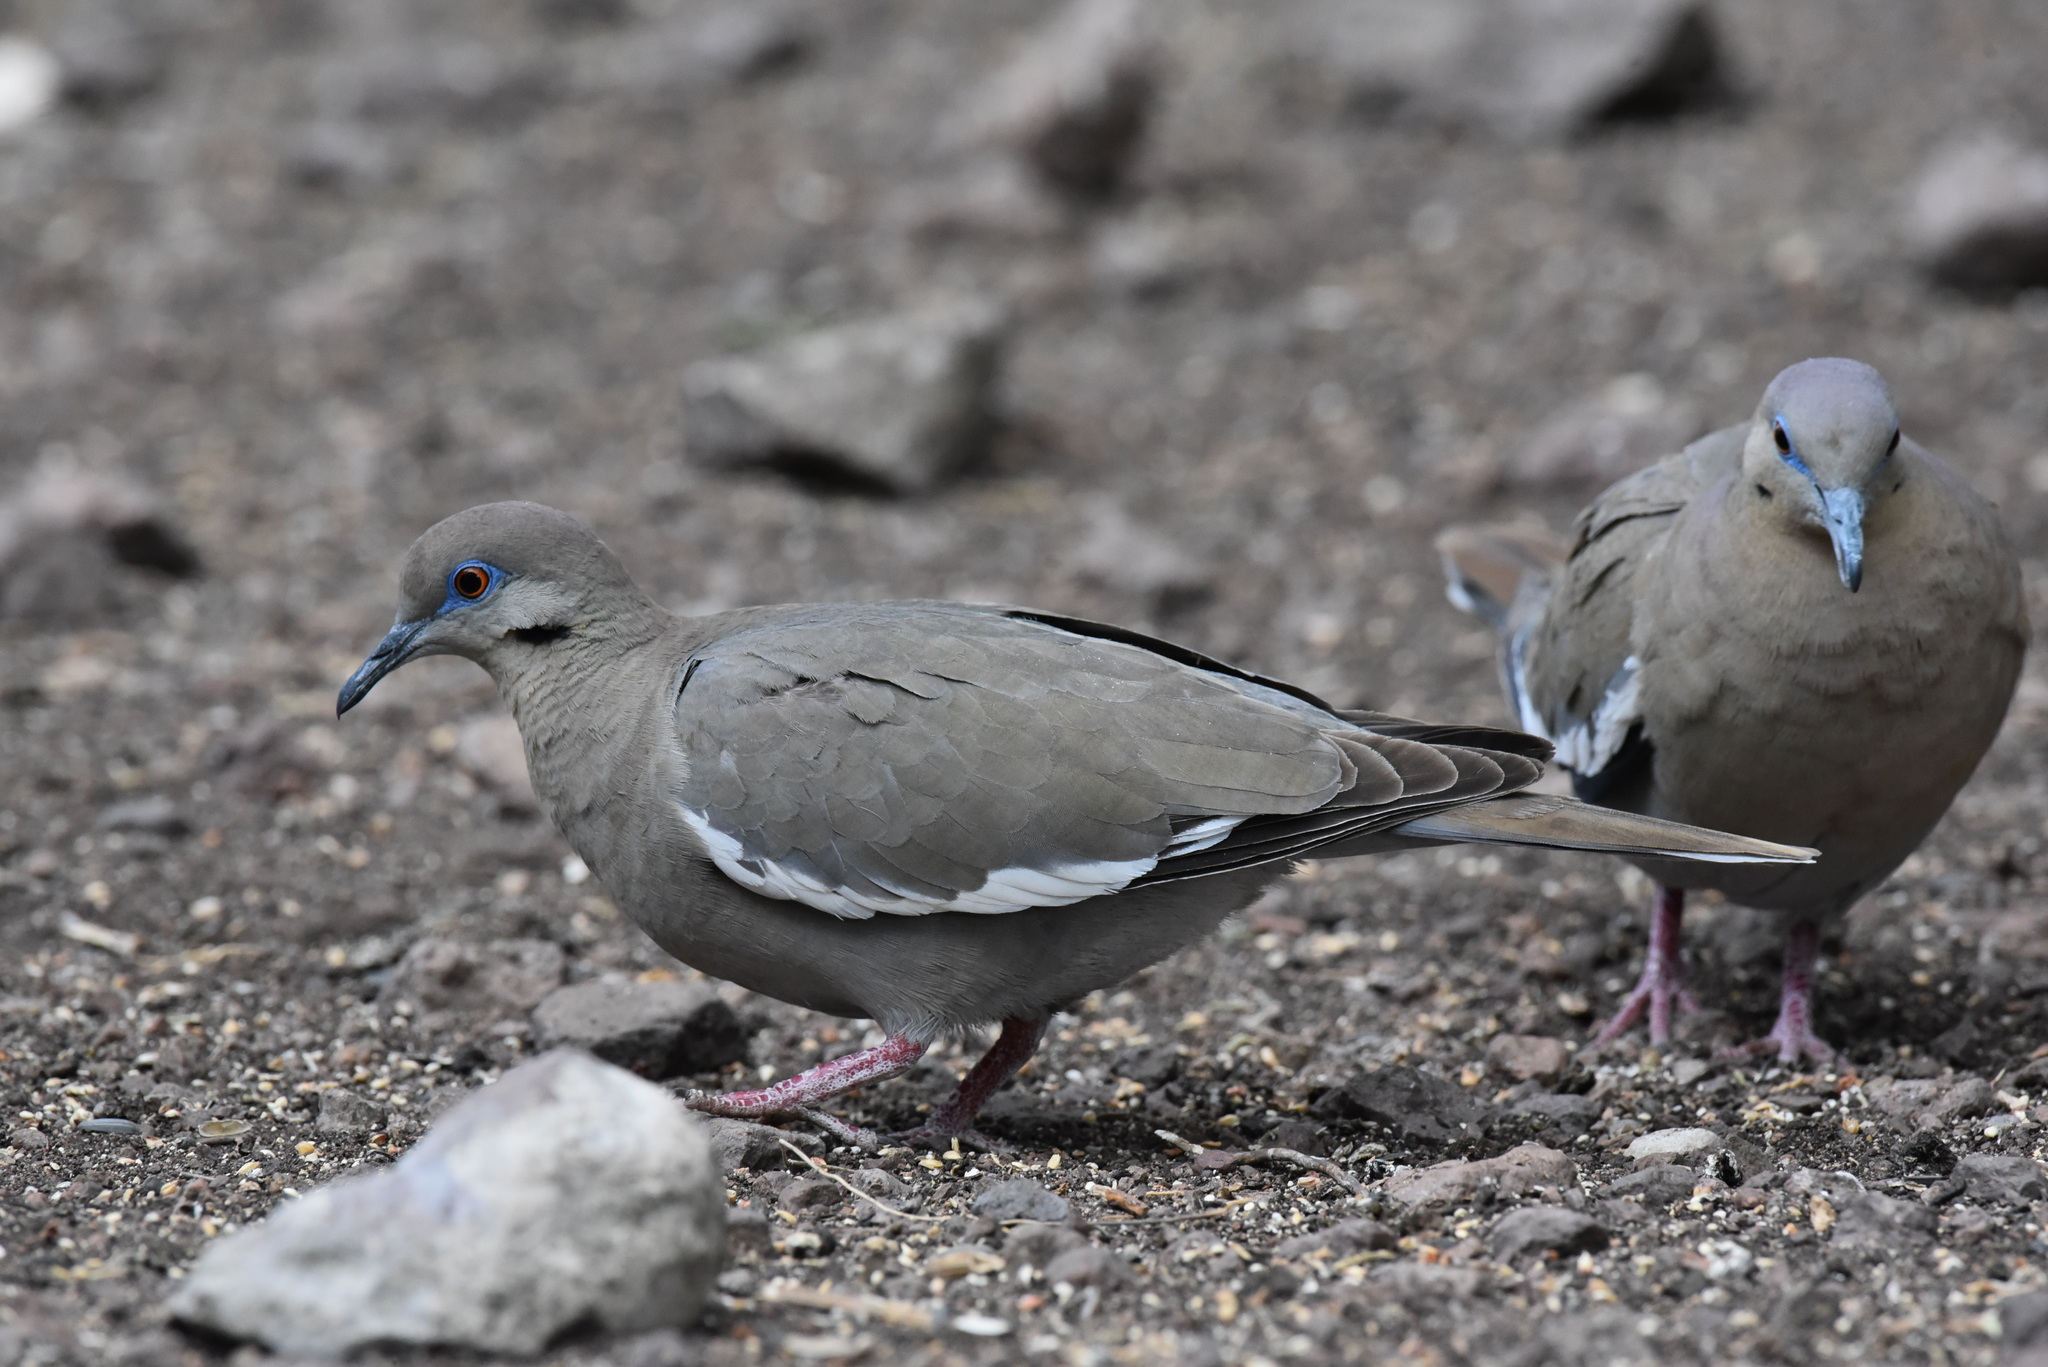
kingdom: Animalia
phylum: Chordata
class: Aves
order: Columbiformes
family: Columbidae
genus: Zenaida
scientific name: Zenaida asiatica
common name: White-winged dove
